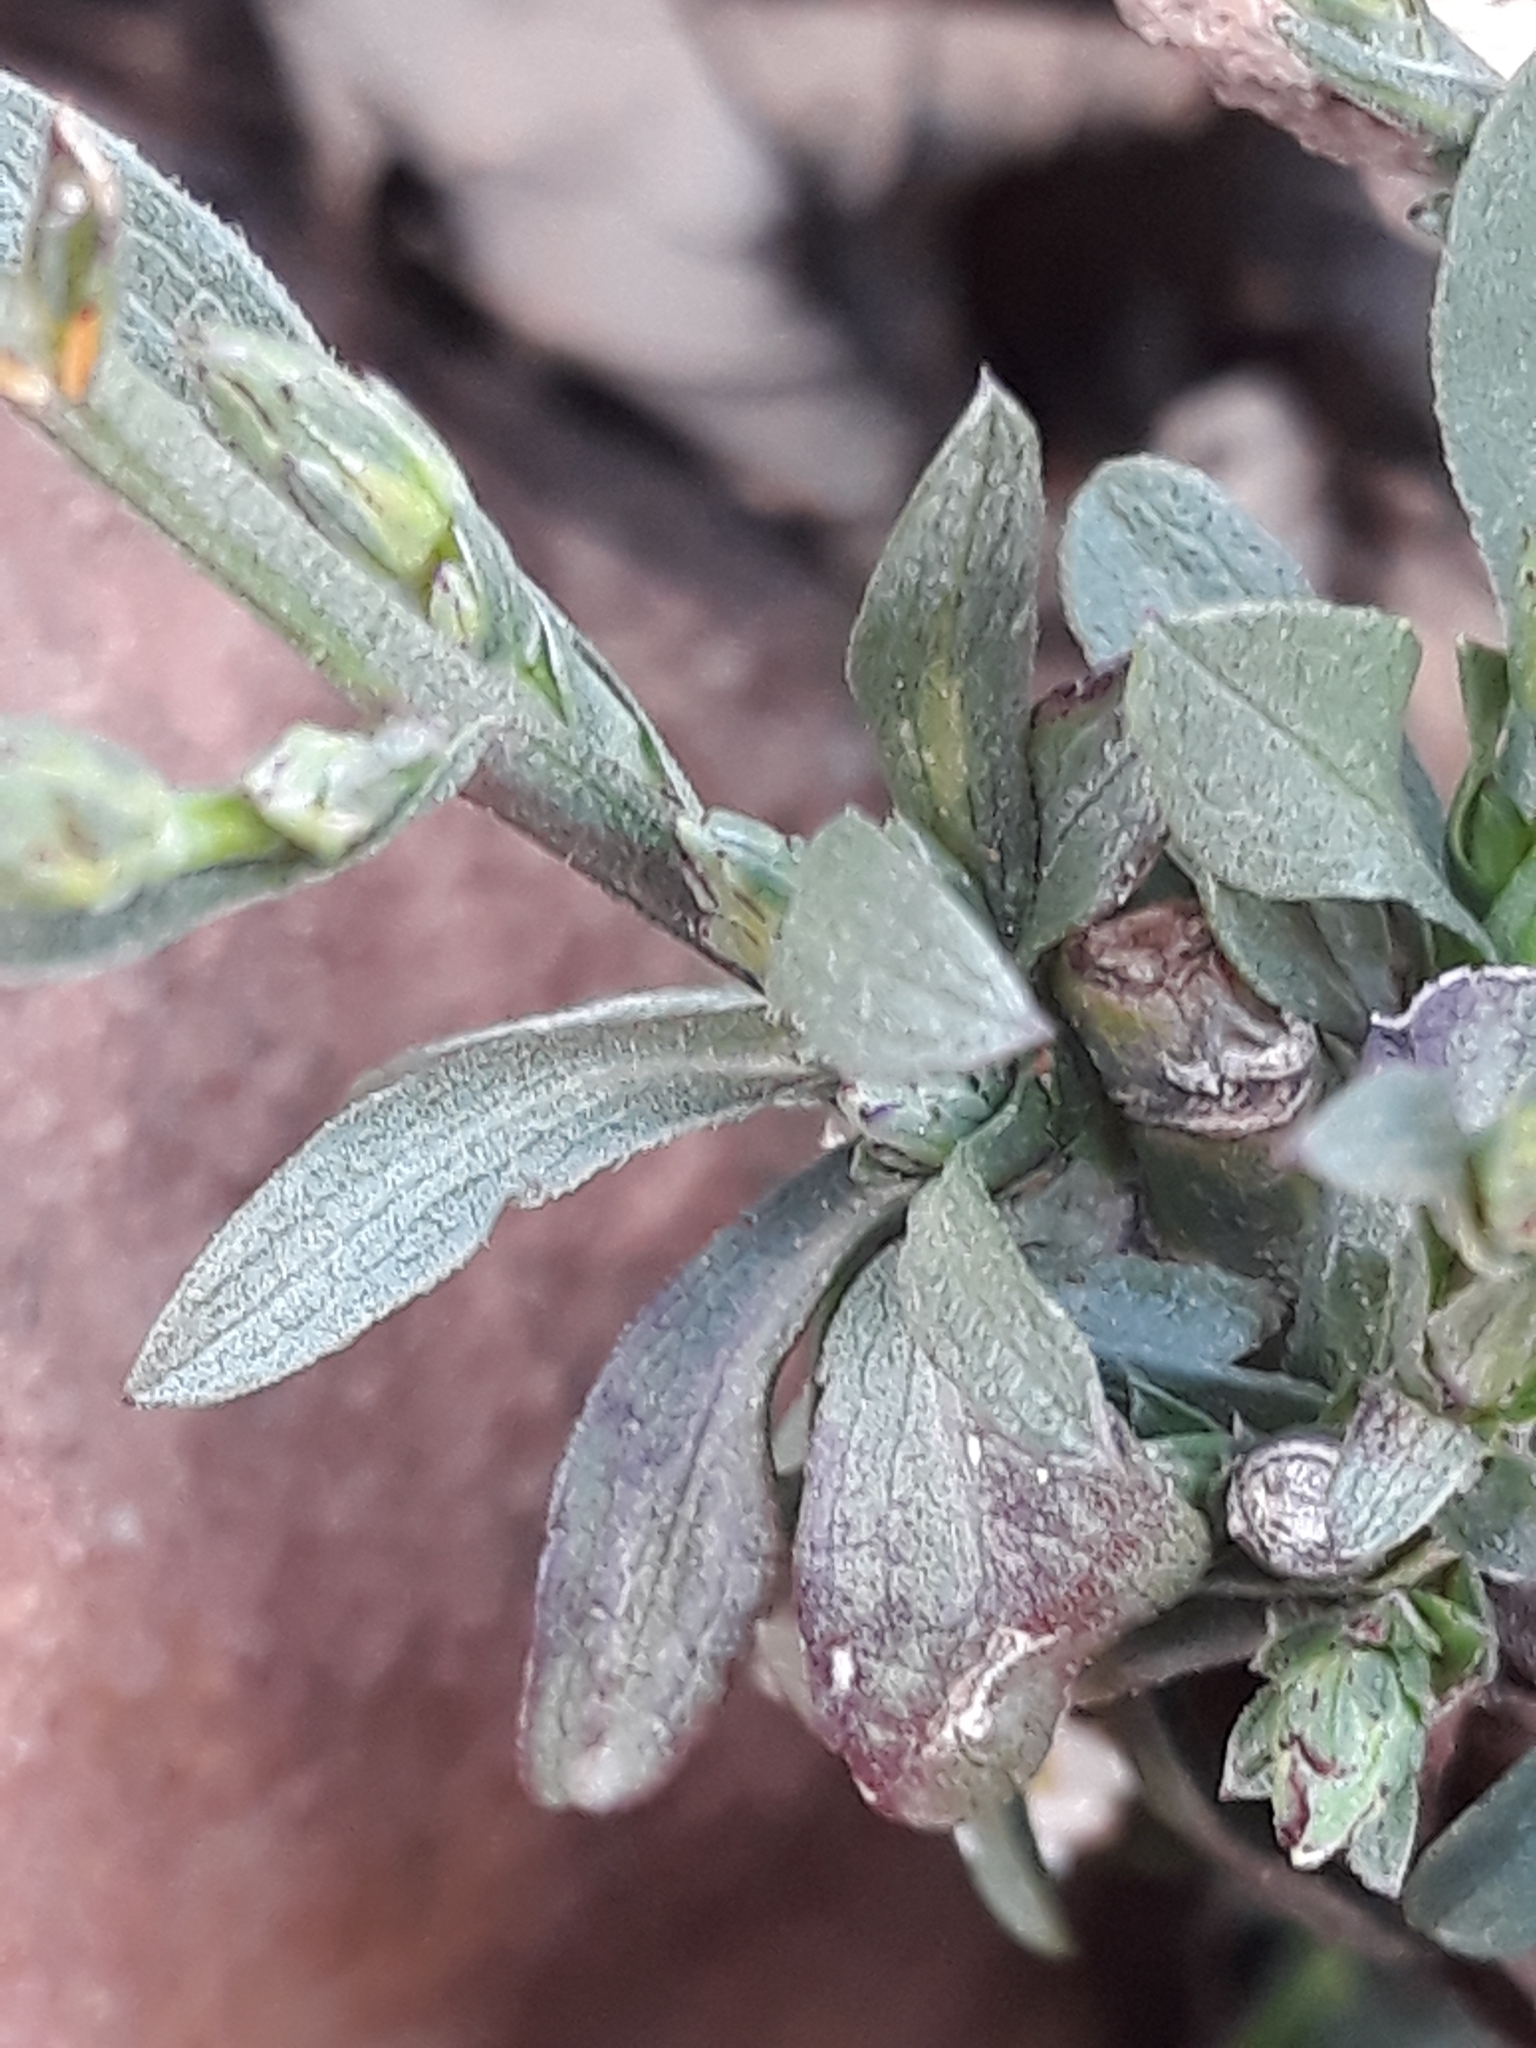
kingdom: Plantae
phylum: Tracheophyta
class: Magnoliopsida
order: Asterales
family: Asteraceae
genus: Symphyotrichum
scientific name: Symphyotrichum squamatum
